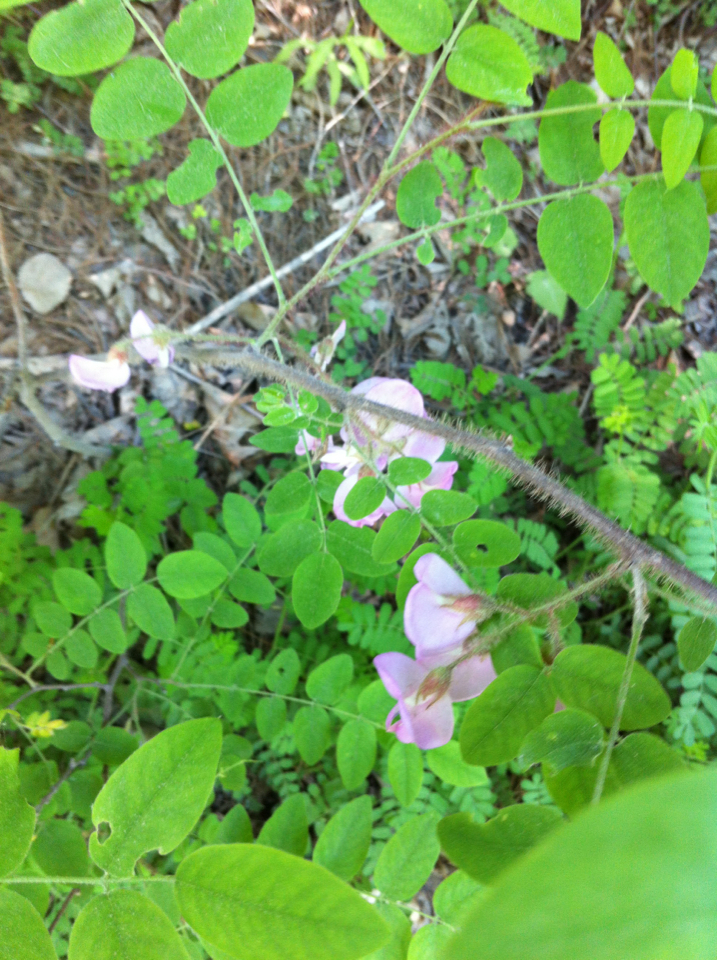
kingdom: Plantae
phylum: Tracheophyta
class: Magnoliopsida
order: Fabales
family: Fabaceae
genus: Robinia
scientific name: Robinia hispida
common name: Bristly locust
